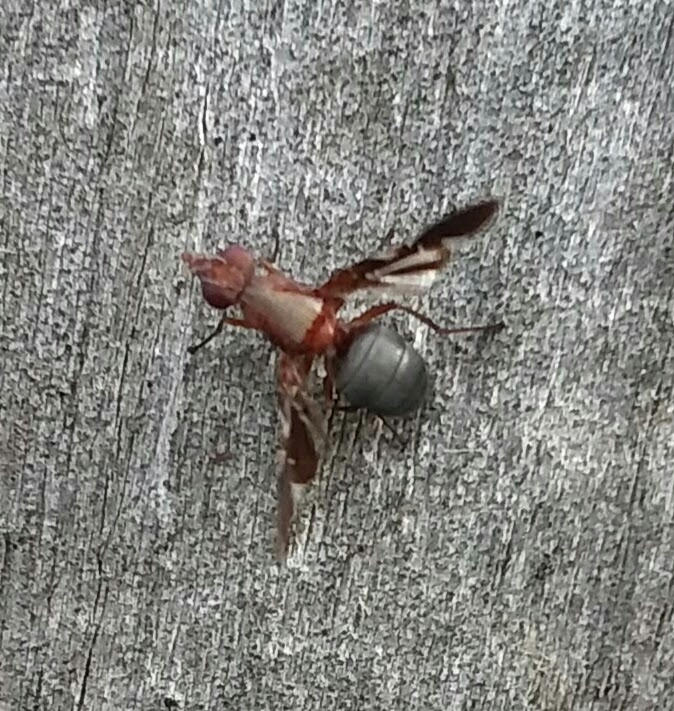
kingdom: Animalia
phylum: Arthropoda
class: Insecta
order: Diptera
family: Ulidiidae
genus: Delphinia
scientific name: Delphinia picta
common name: Common picture-winged fly
